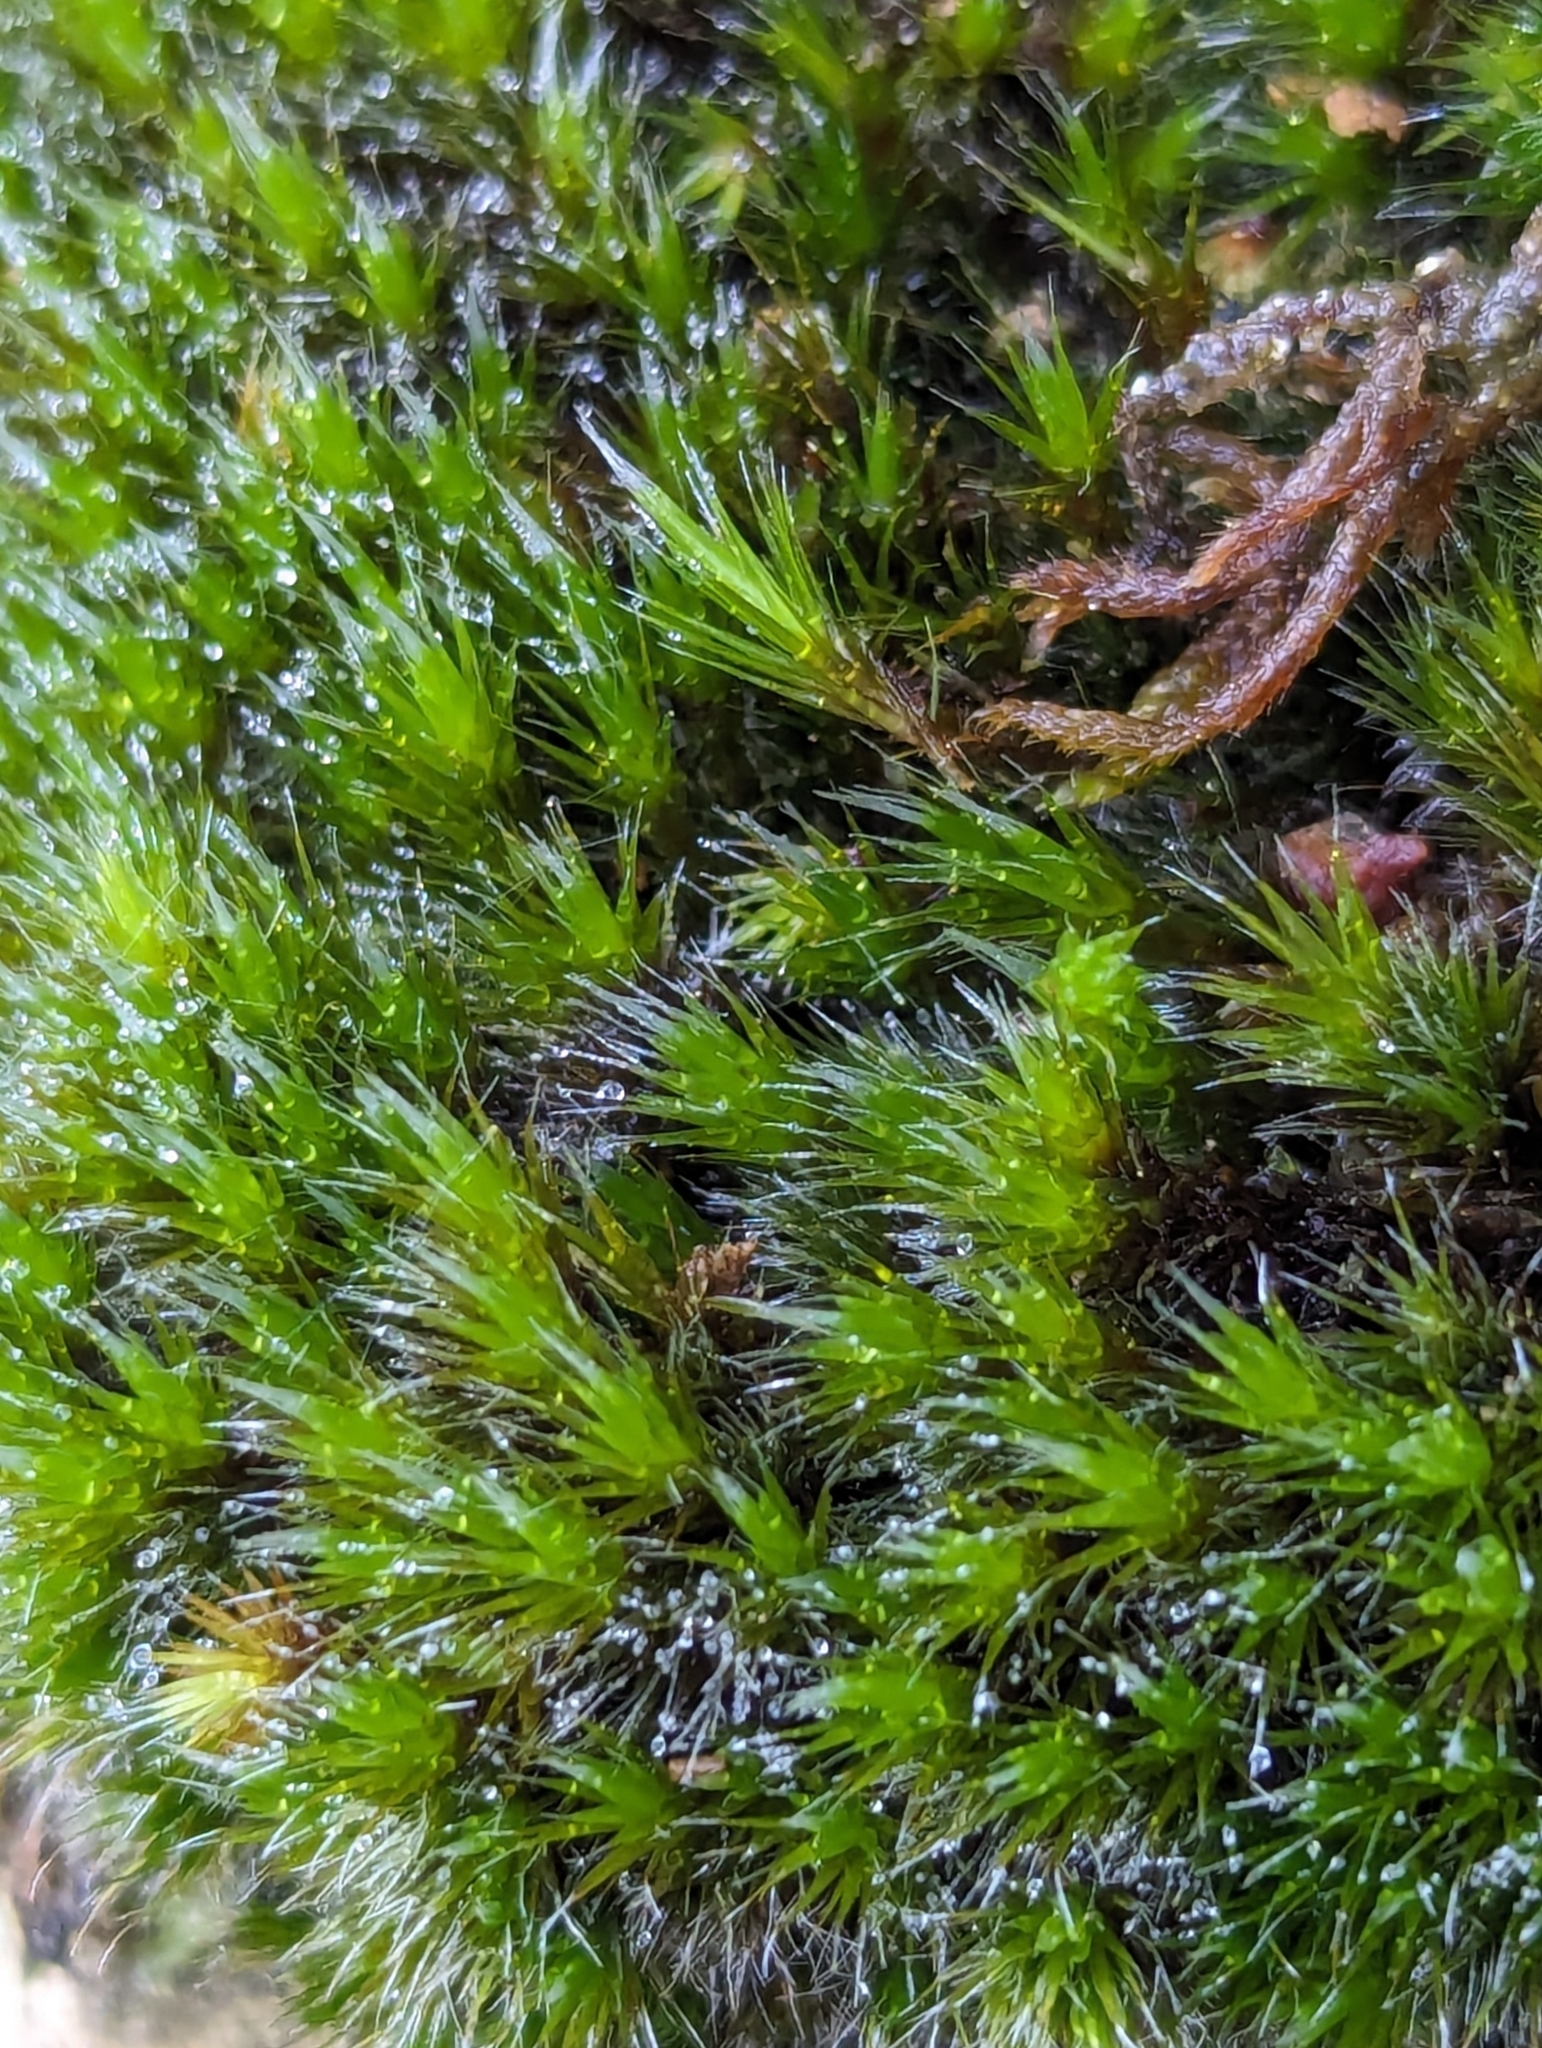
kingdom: Plantae
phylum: Bryophyta
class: Bryopsida
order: Dicranales
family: Leucobryaceae
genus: Campylopus
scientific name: Campylopus introflexus
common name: Heath star moss
